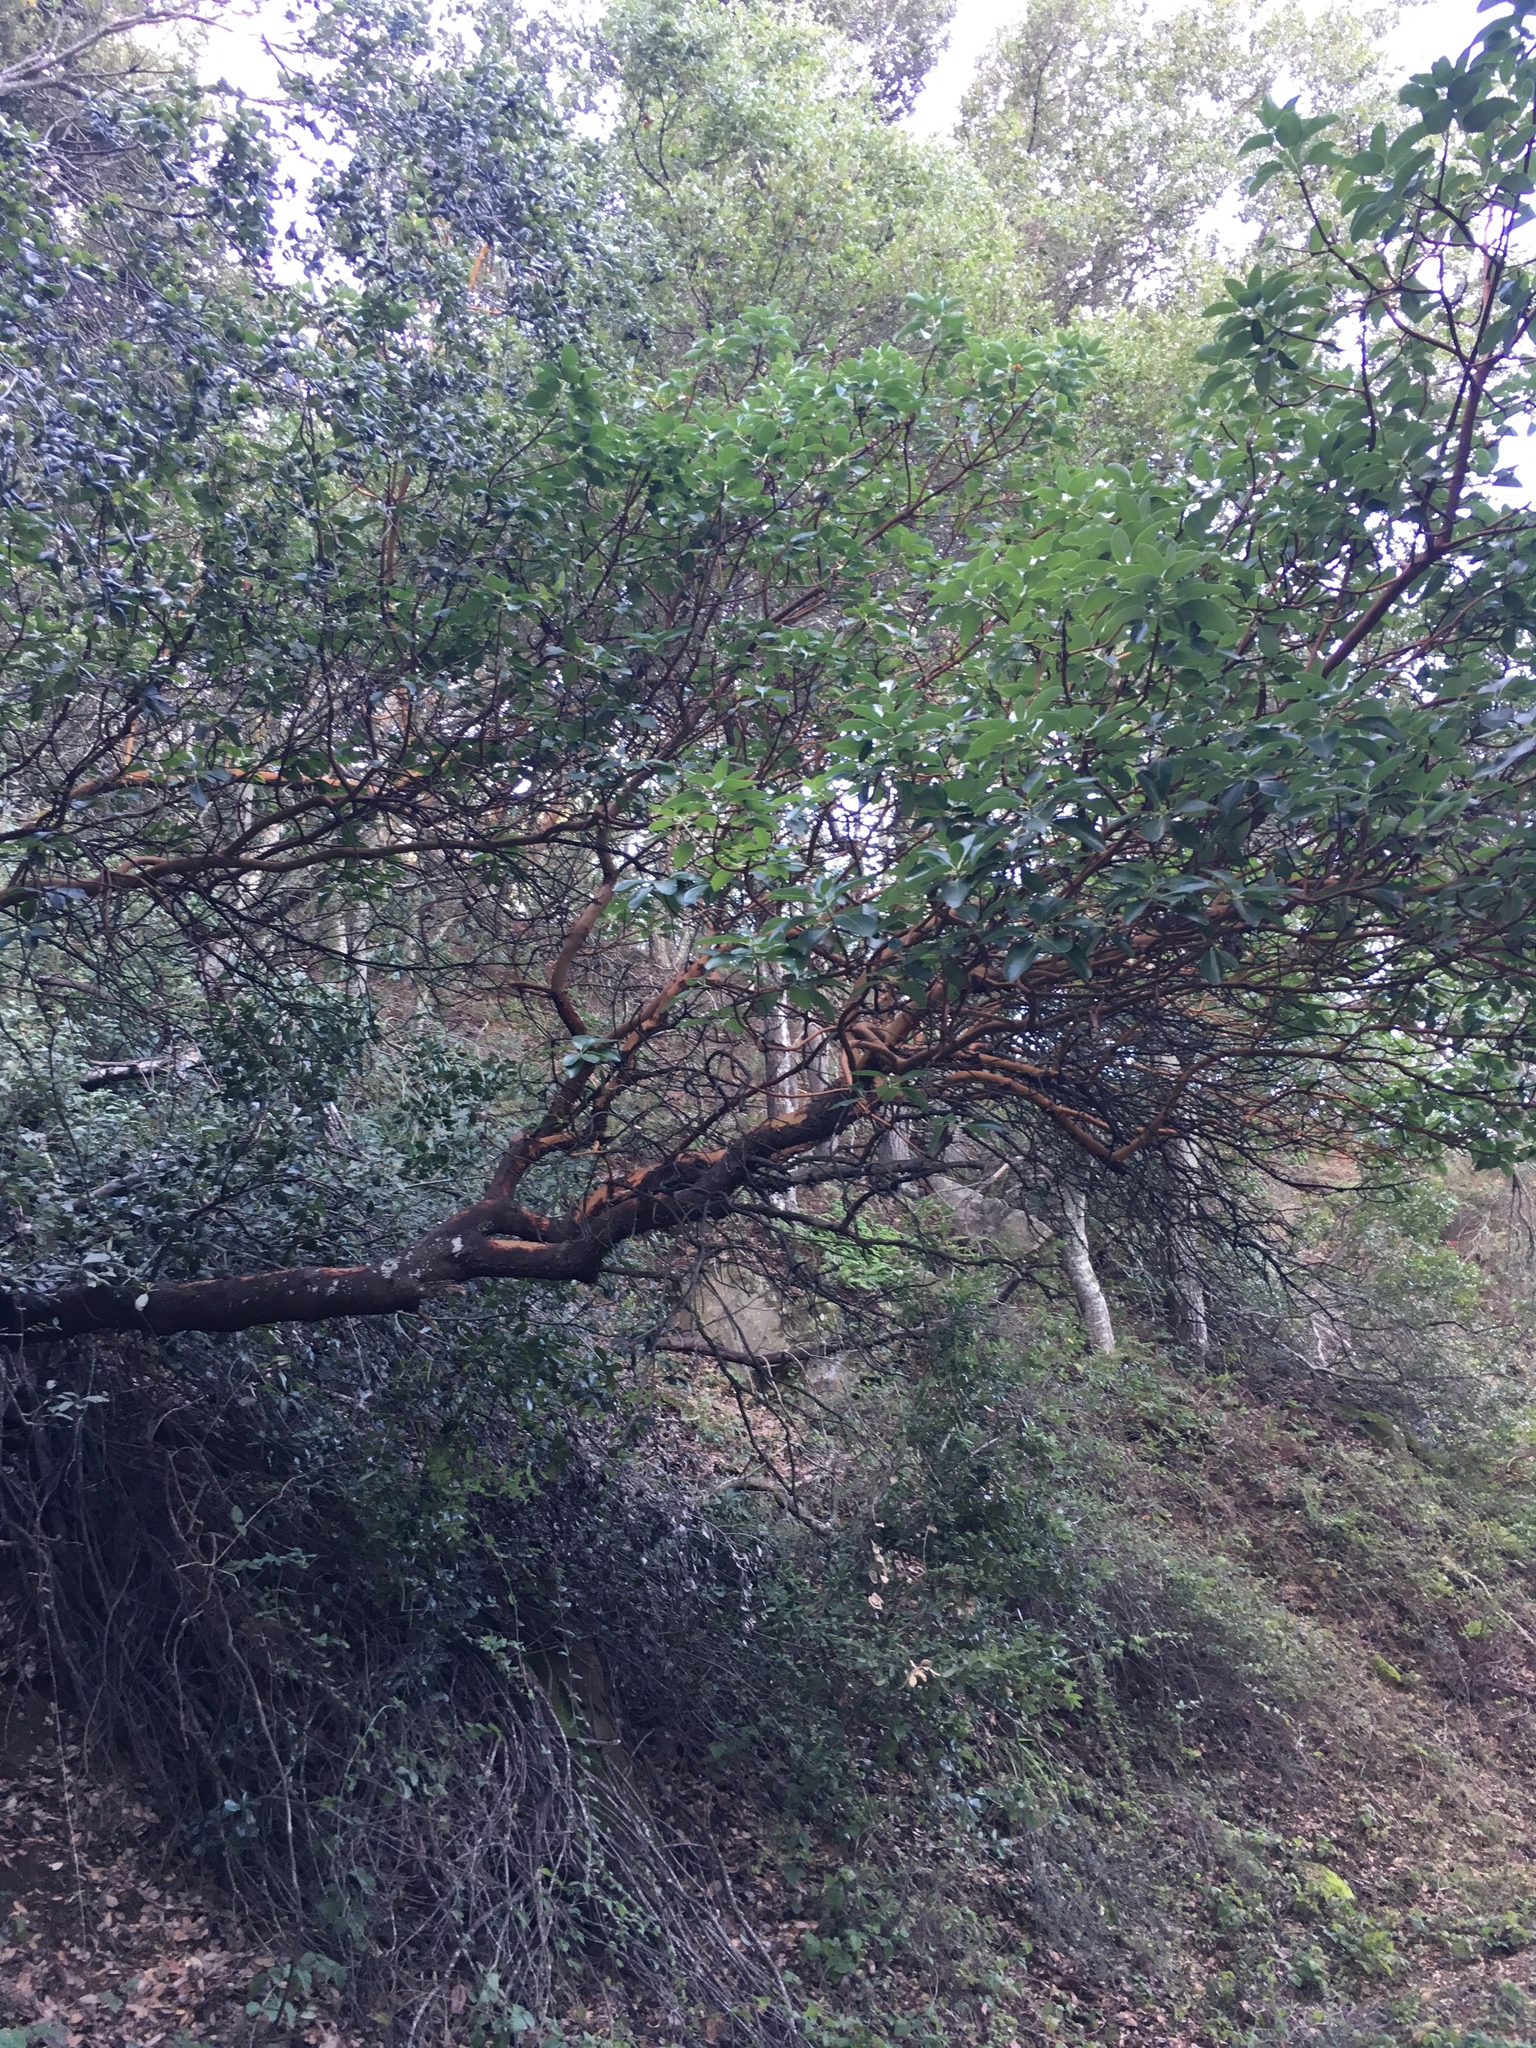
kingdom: Plantae
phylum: Tracheophyta
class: Magnoliopsida
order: Ericales
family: Ericaceae
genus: Arbutus
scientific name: Arbutus menziesii
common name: Pacific madrone
